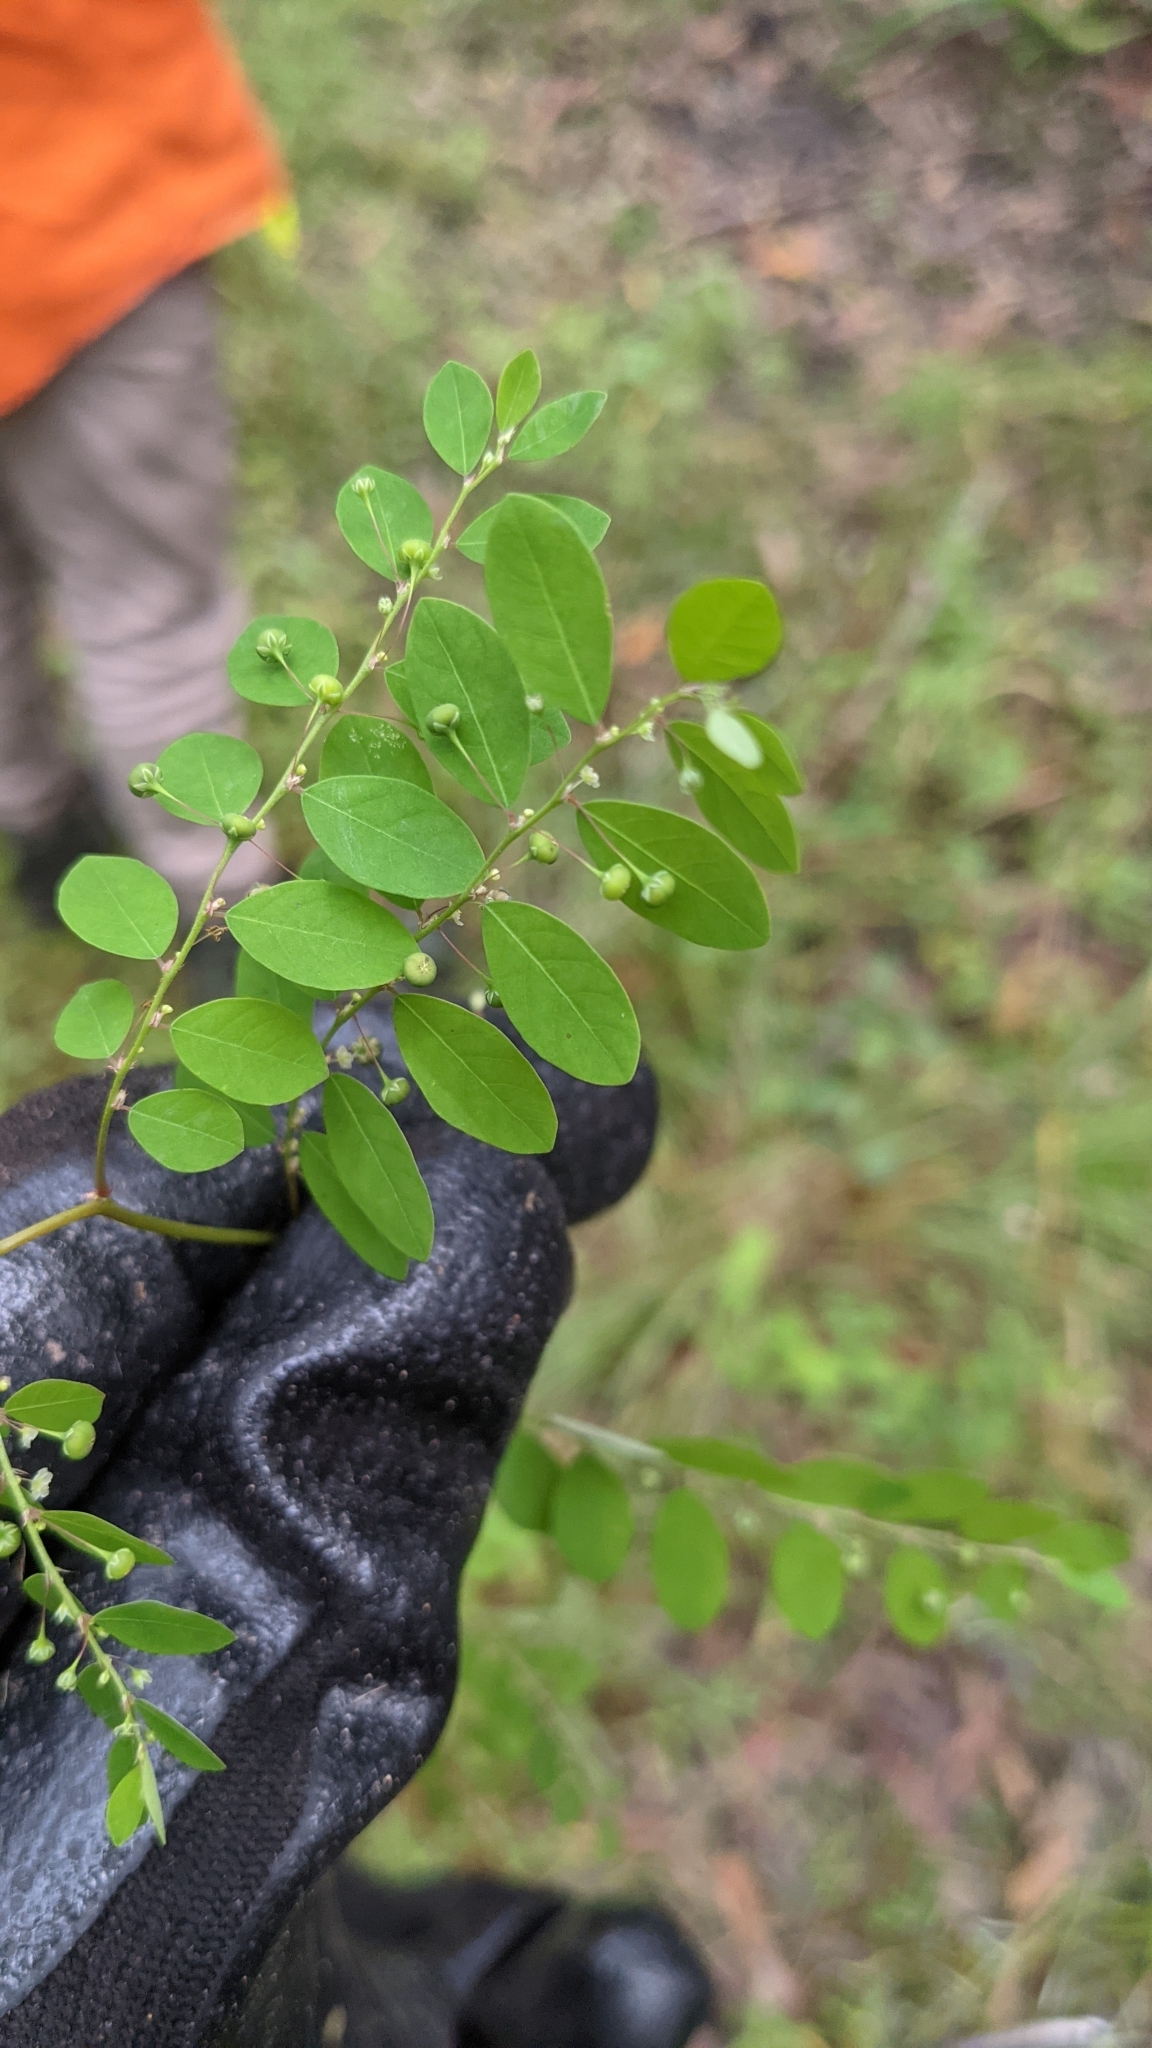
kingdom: Plantae
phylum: Tracheophyta
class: Magnoliopsida
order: Malpighiales
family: Phyllanthaceae
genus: Phyllanthus
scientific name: Phyllanthus tenellus
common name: Mascarene island leaf-flower
